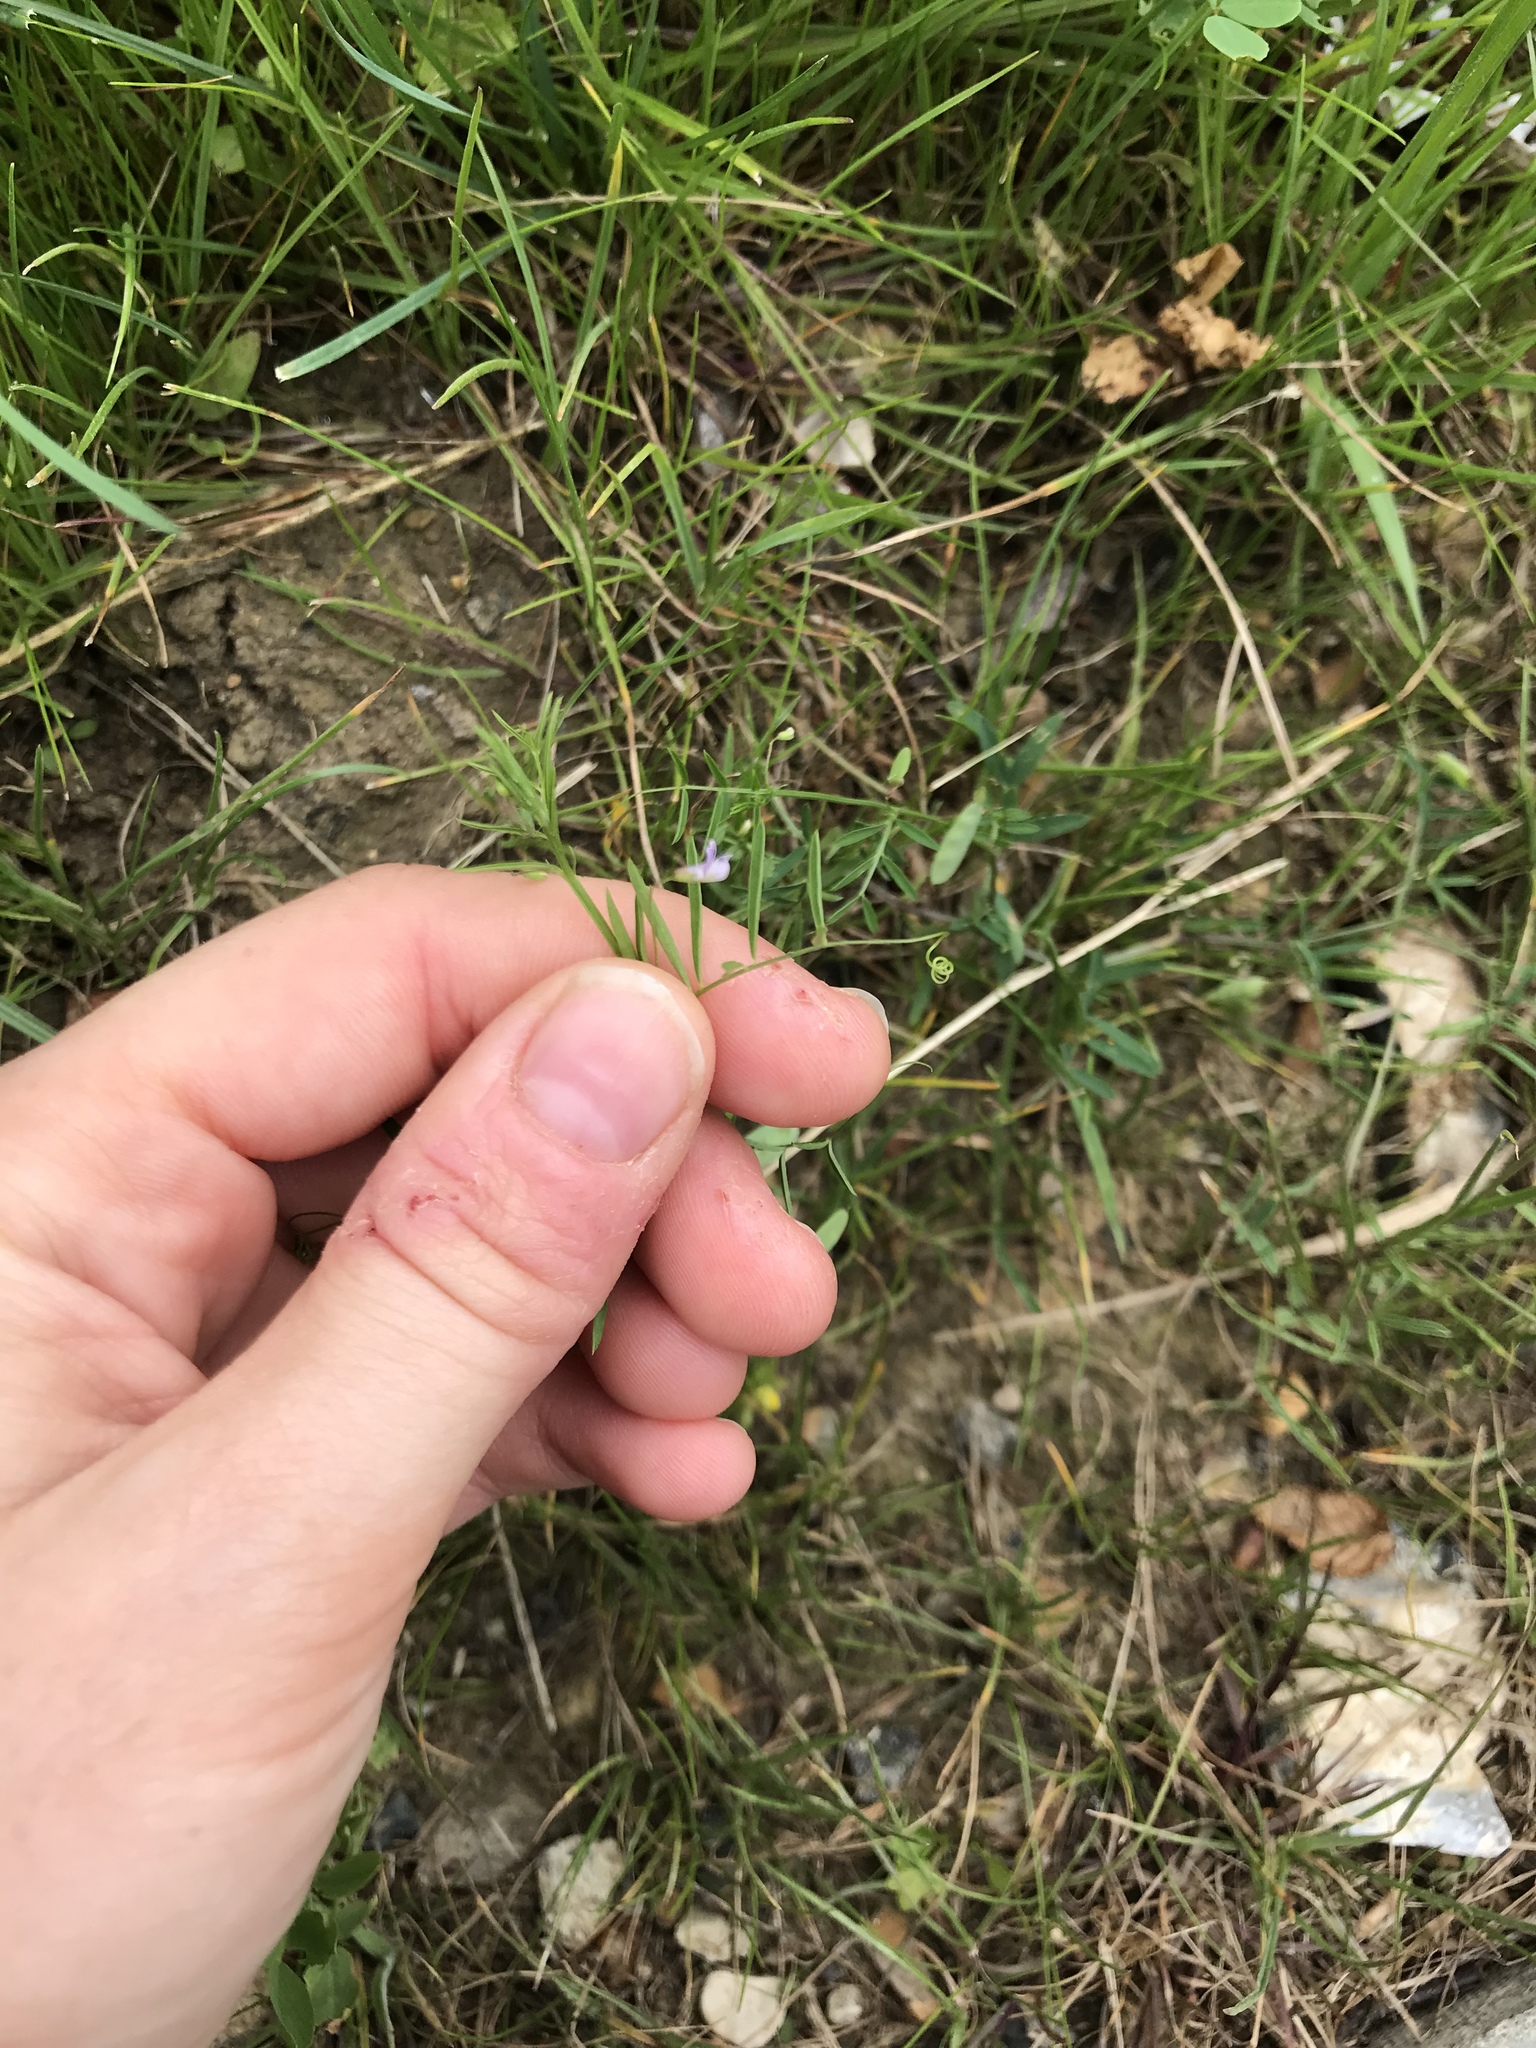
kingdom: Plantae
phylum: Tracheophyta
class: Magnoliopsida
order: Fabales
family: Fabaceae
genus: Vicia
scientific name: Vicia tetrasperma
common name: Smooth tare
